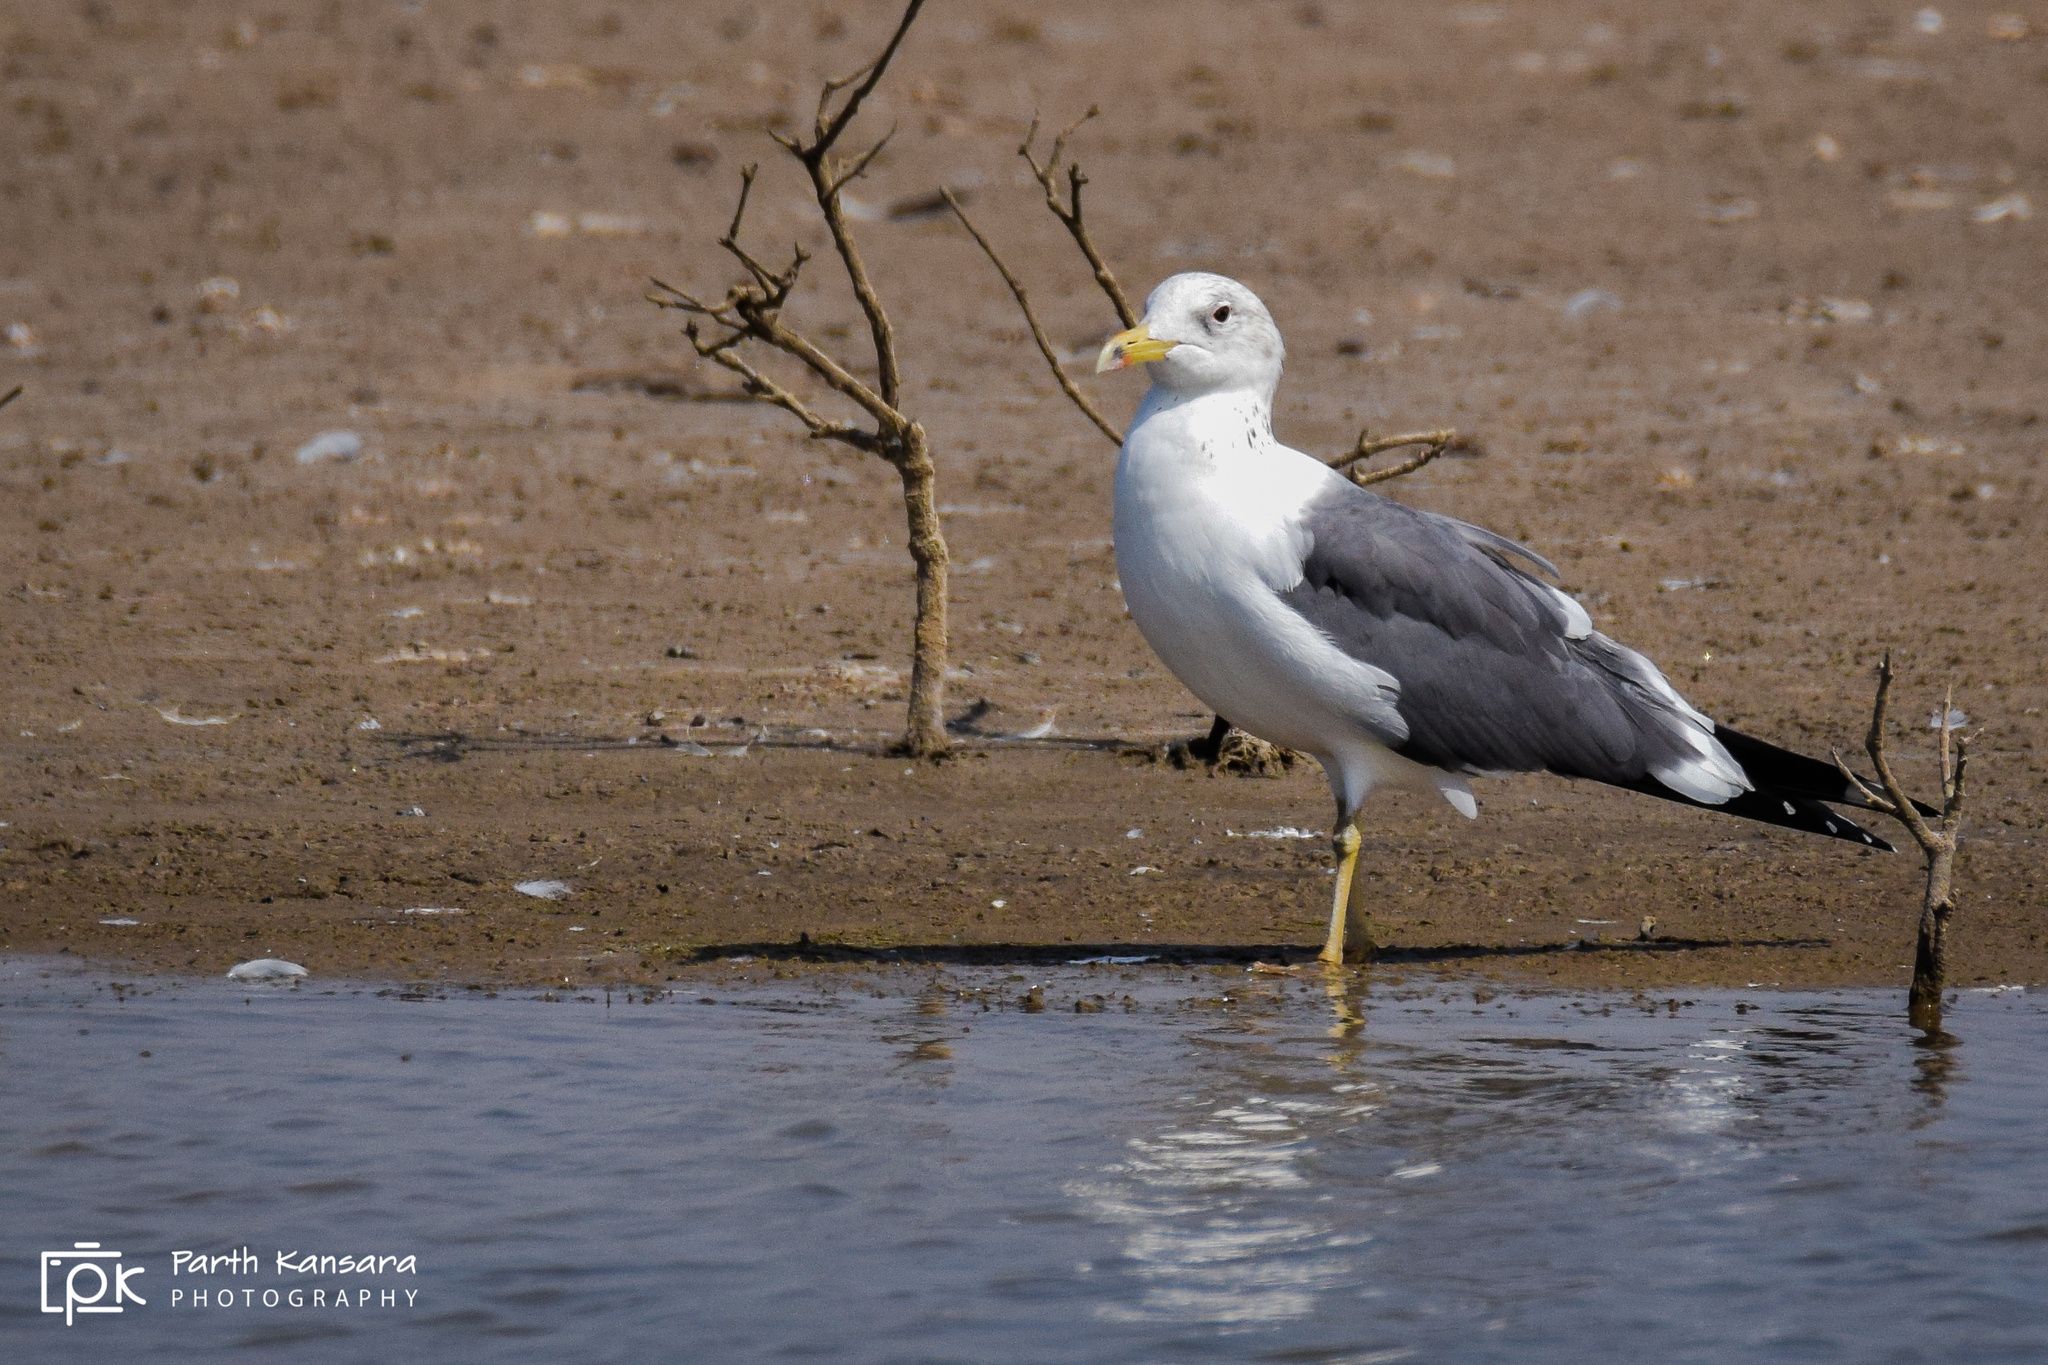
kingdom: Animalia
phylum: Chordata
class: Aves
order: Charadriiformes
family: Laridae
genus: Larus
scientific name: Larus fuscus
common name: Lesser black-backed gull
